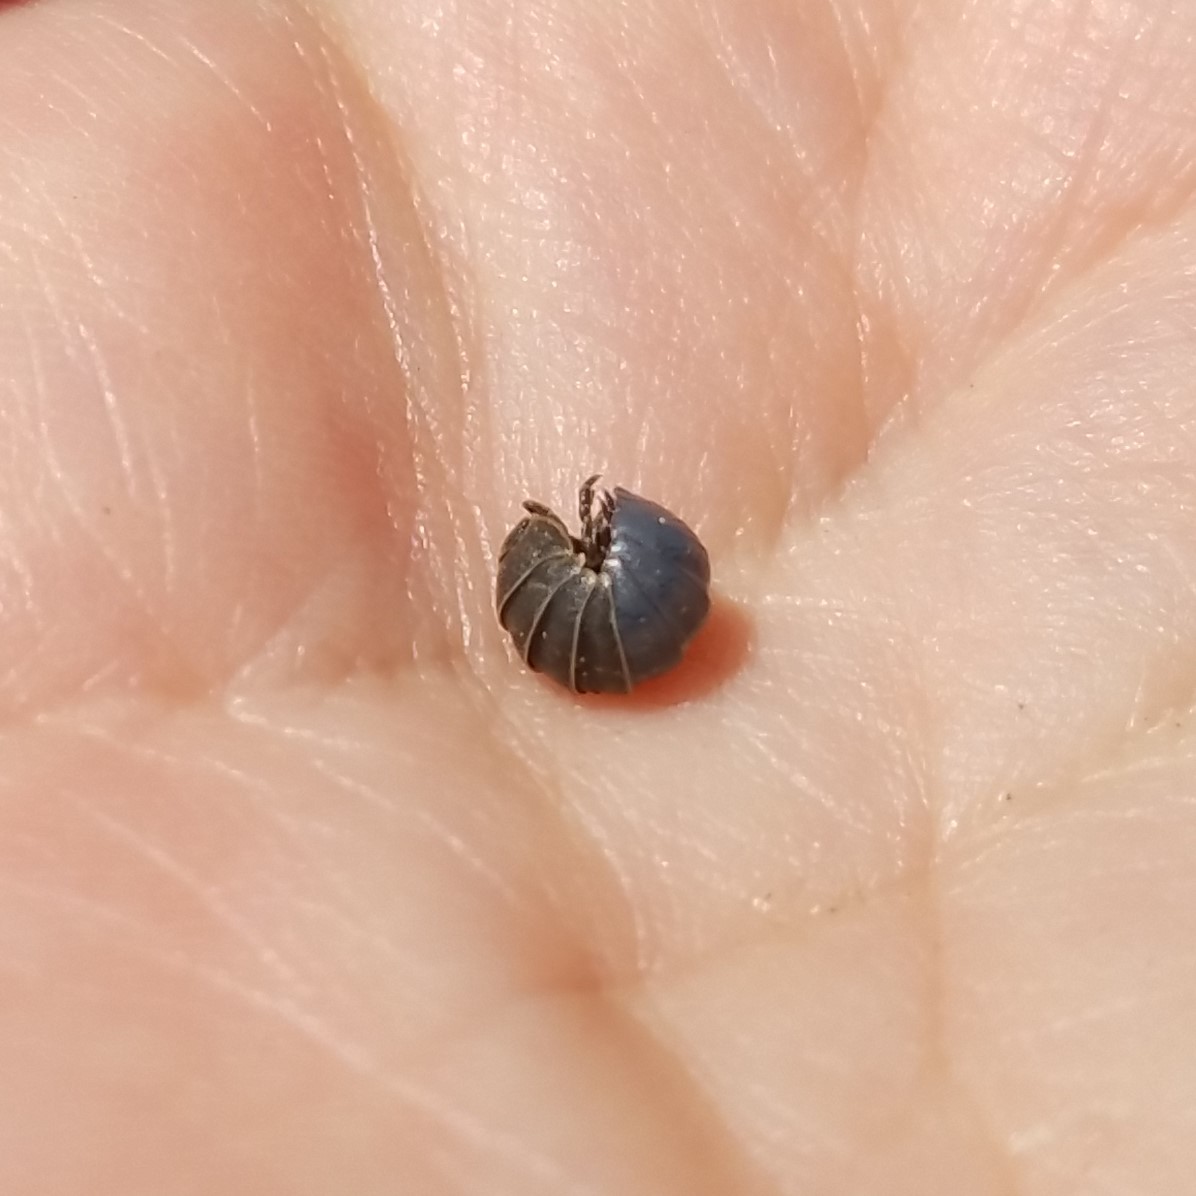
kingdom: Animalia
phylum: Arthropoda
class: Malacostraca
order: Isopoda
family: Armadillidiidae
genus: Armadillidium
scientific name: Armadillidium vulgare
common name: Common pill woodlouse
